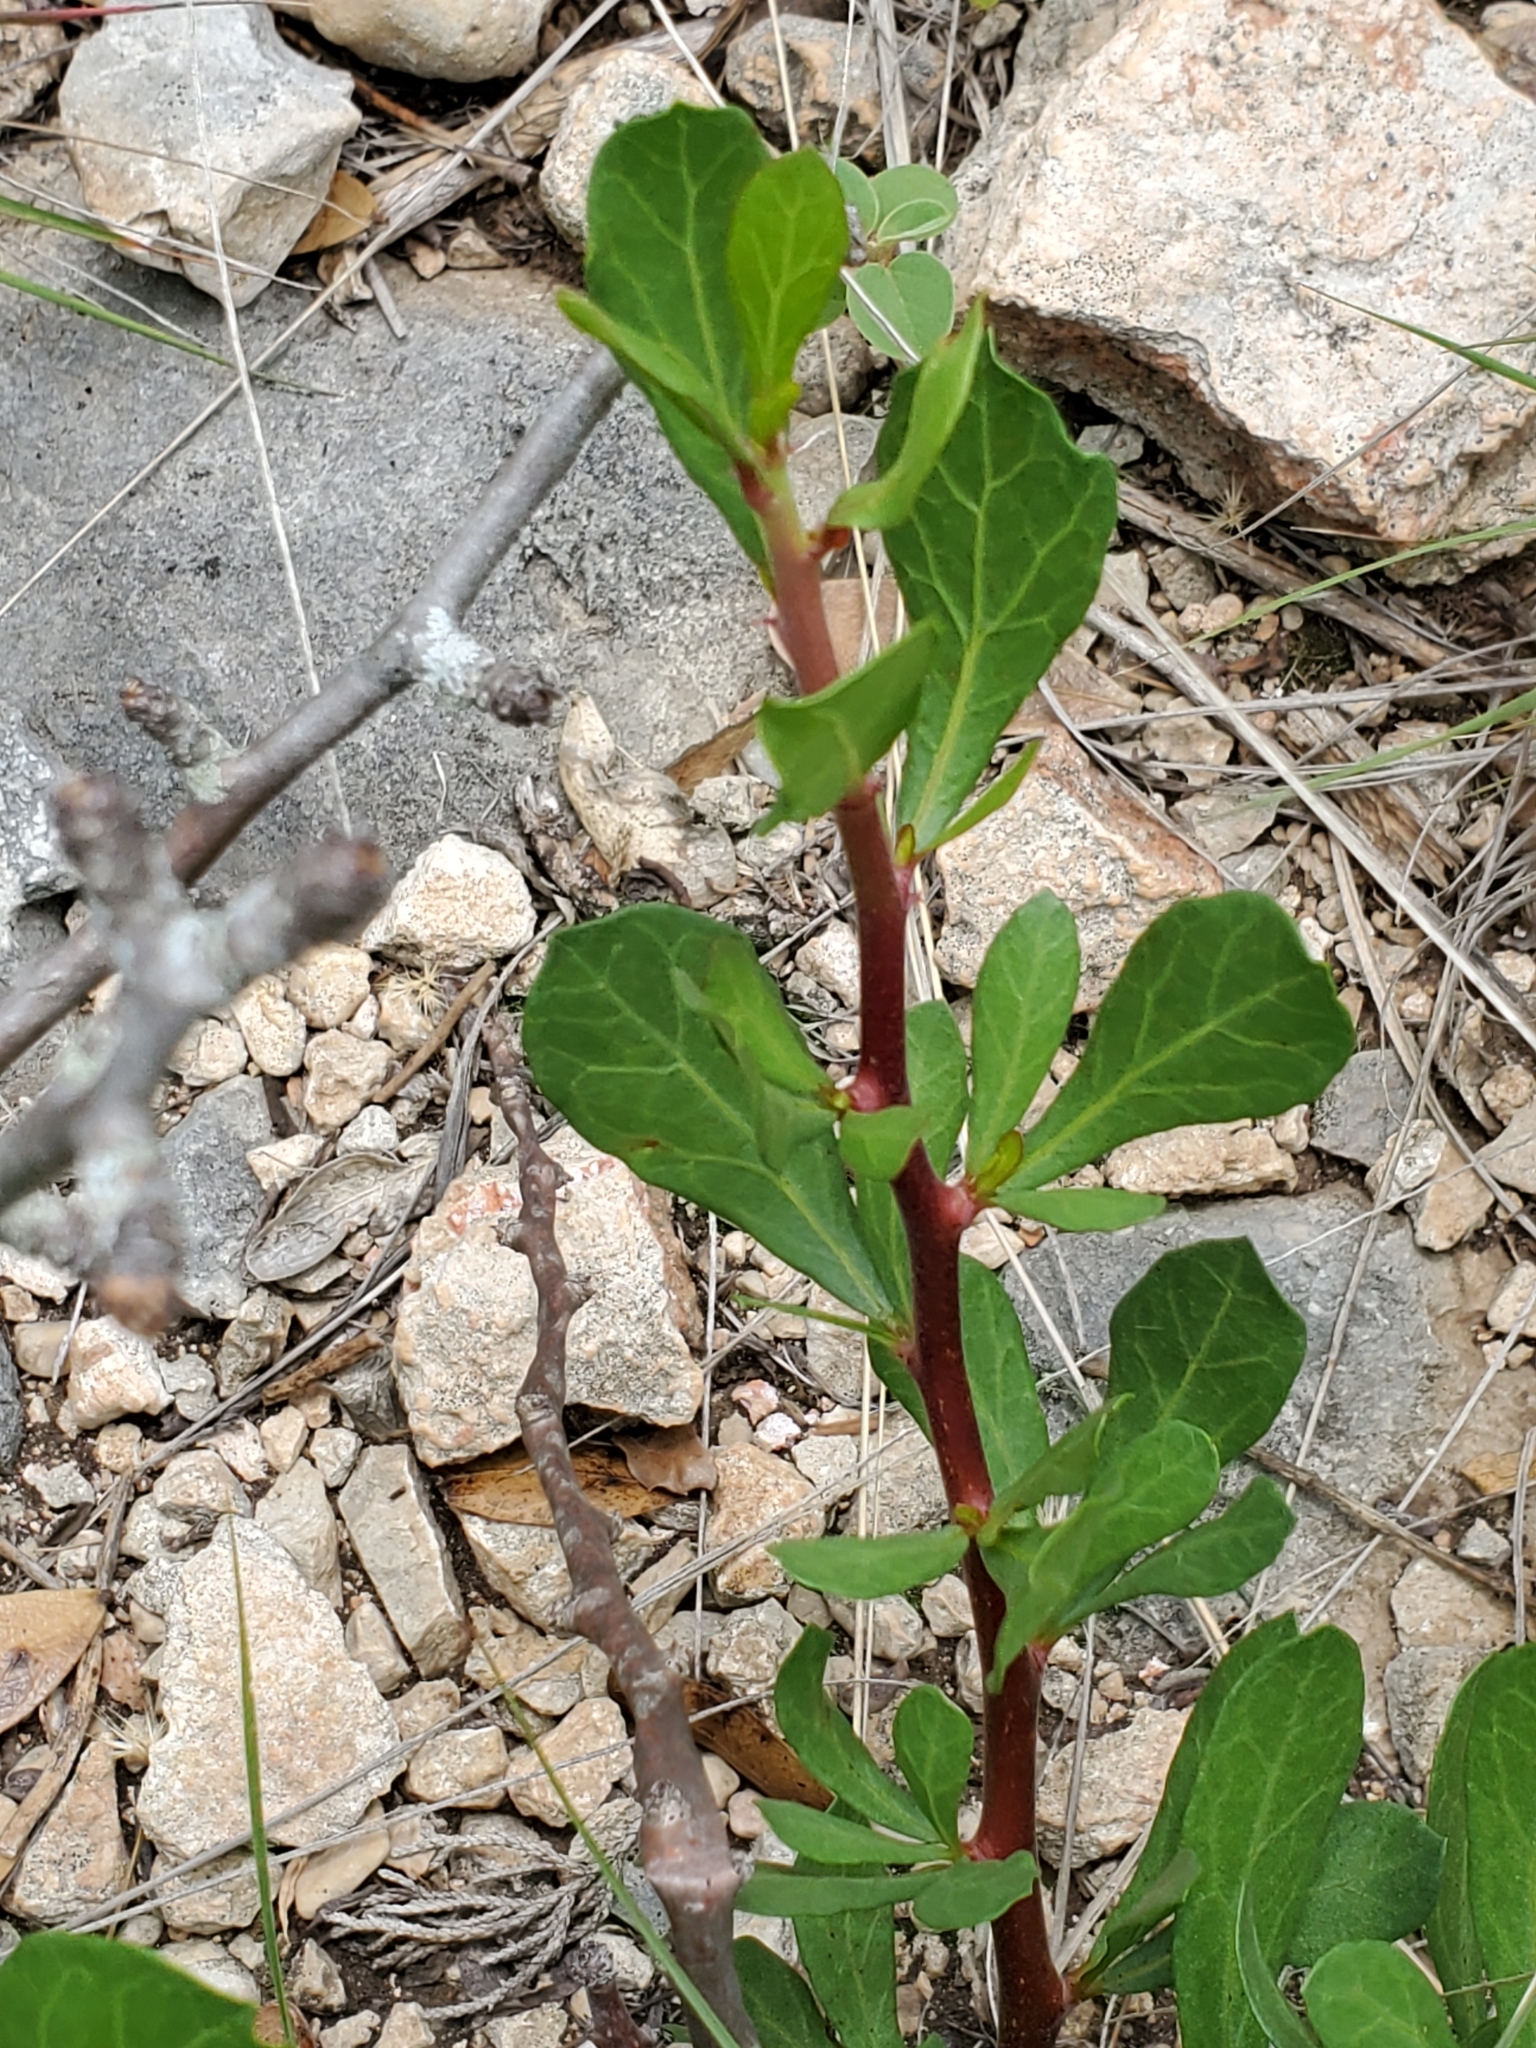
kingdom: Plantae
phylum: Tracheophyta
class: Magnoliopsida
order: Malpighiales
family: Euphorbiaceae
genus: Jatropha
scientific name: Jatropha dioica
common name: Leatherstem
